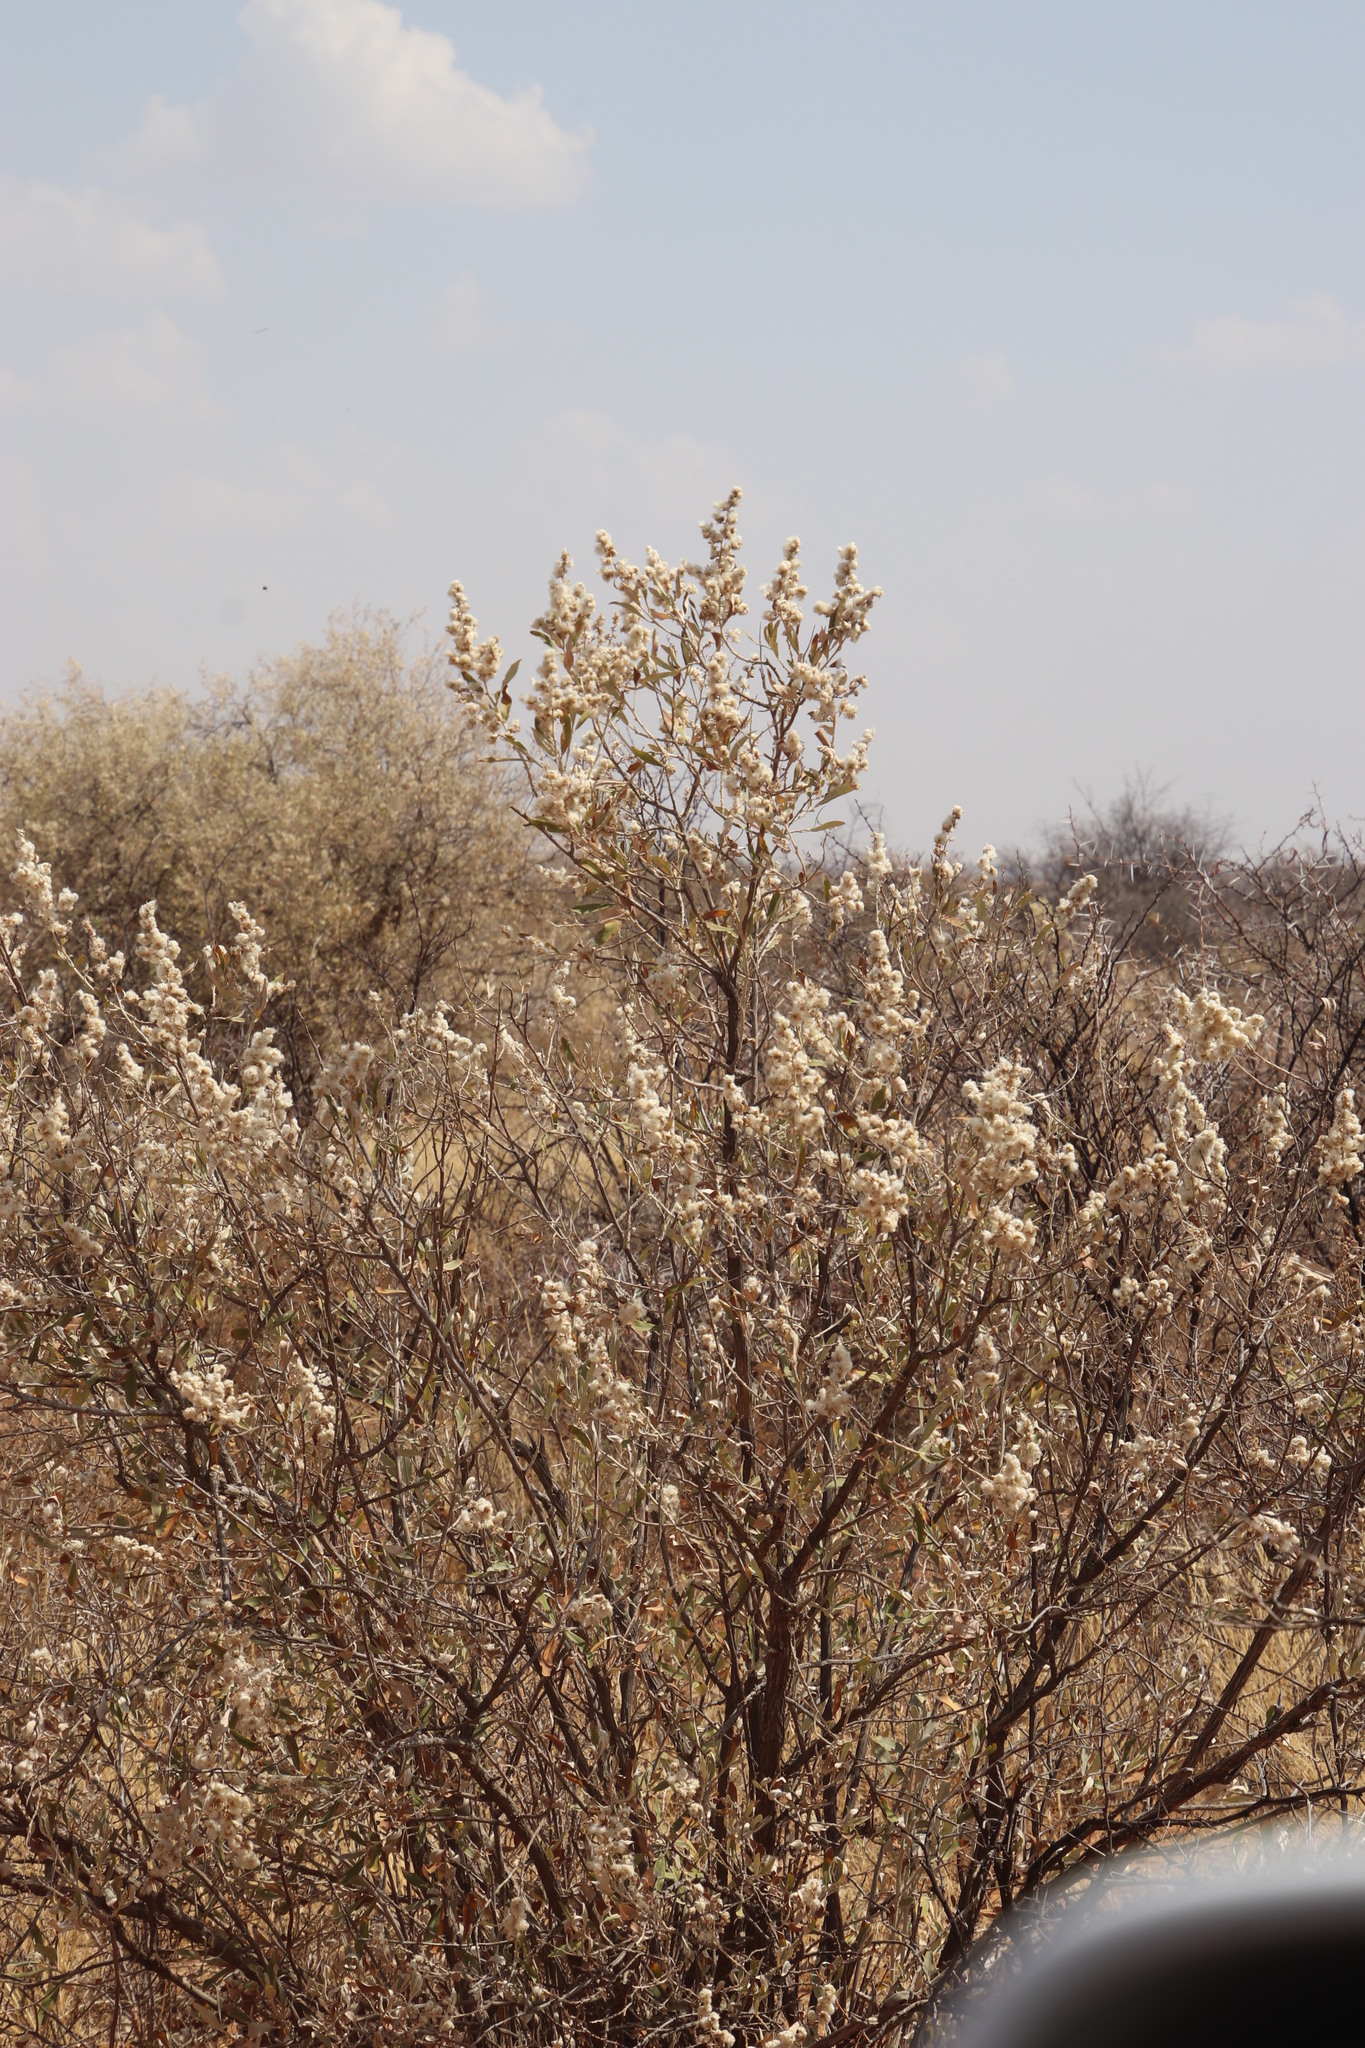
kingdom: Plantae
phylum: Tracheophyta
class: Magnoliopsida
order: Asterales
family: Asteraceae
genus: Tarchonanthus
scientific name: Tarchonanthus camphoratus
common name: Camphorwood
